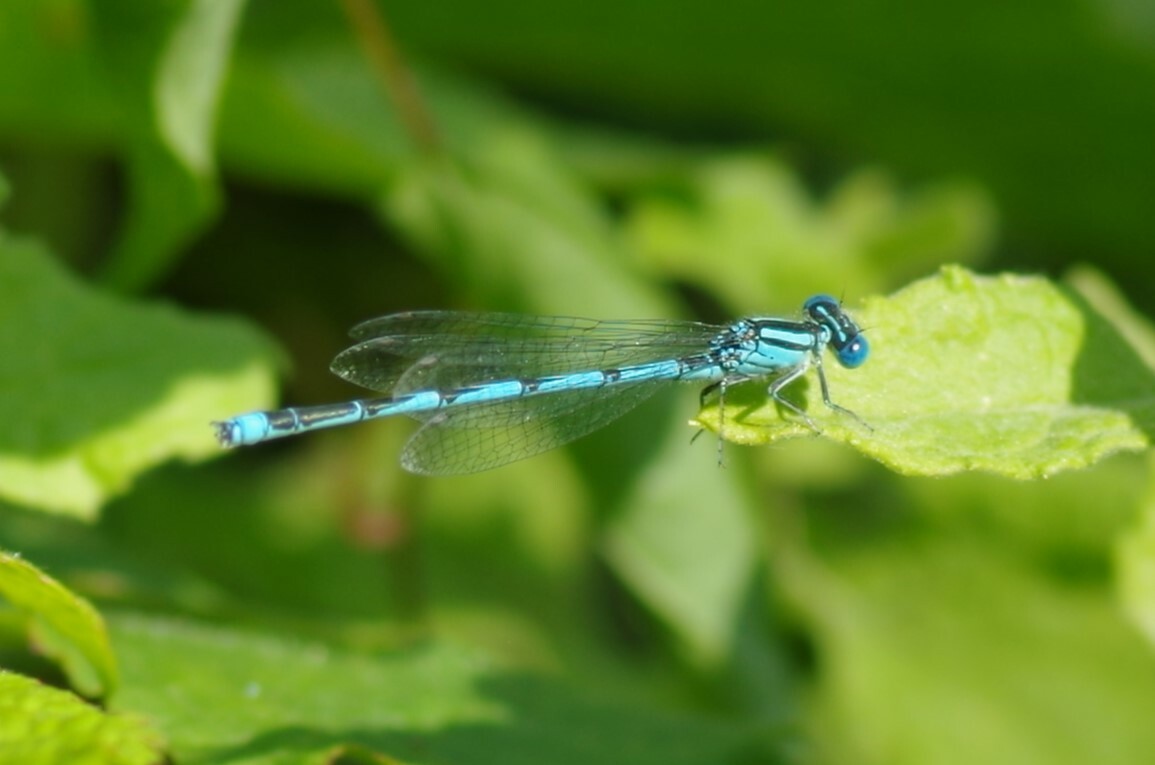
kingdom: Animalia
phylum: Arthropoda
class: Insecta
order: Odonata
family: Coenagrionidae
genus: Erythromma
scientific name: Erythromma lindenii
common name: Blue-eye
